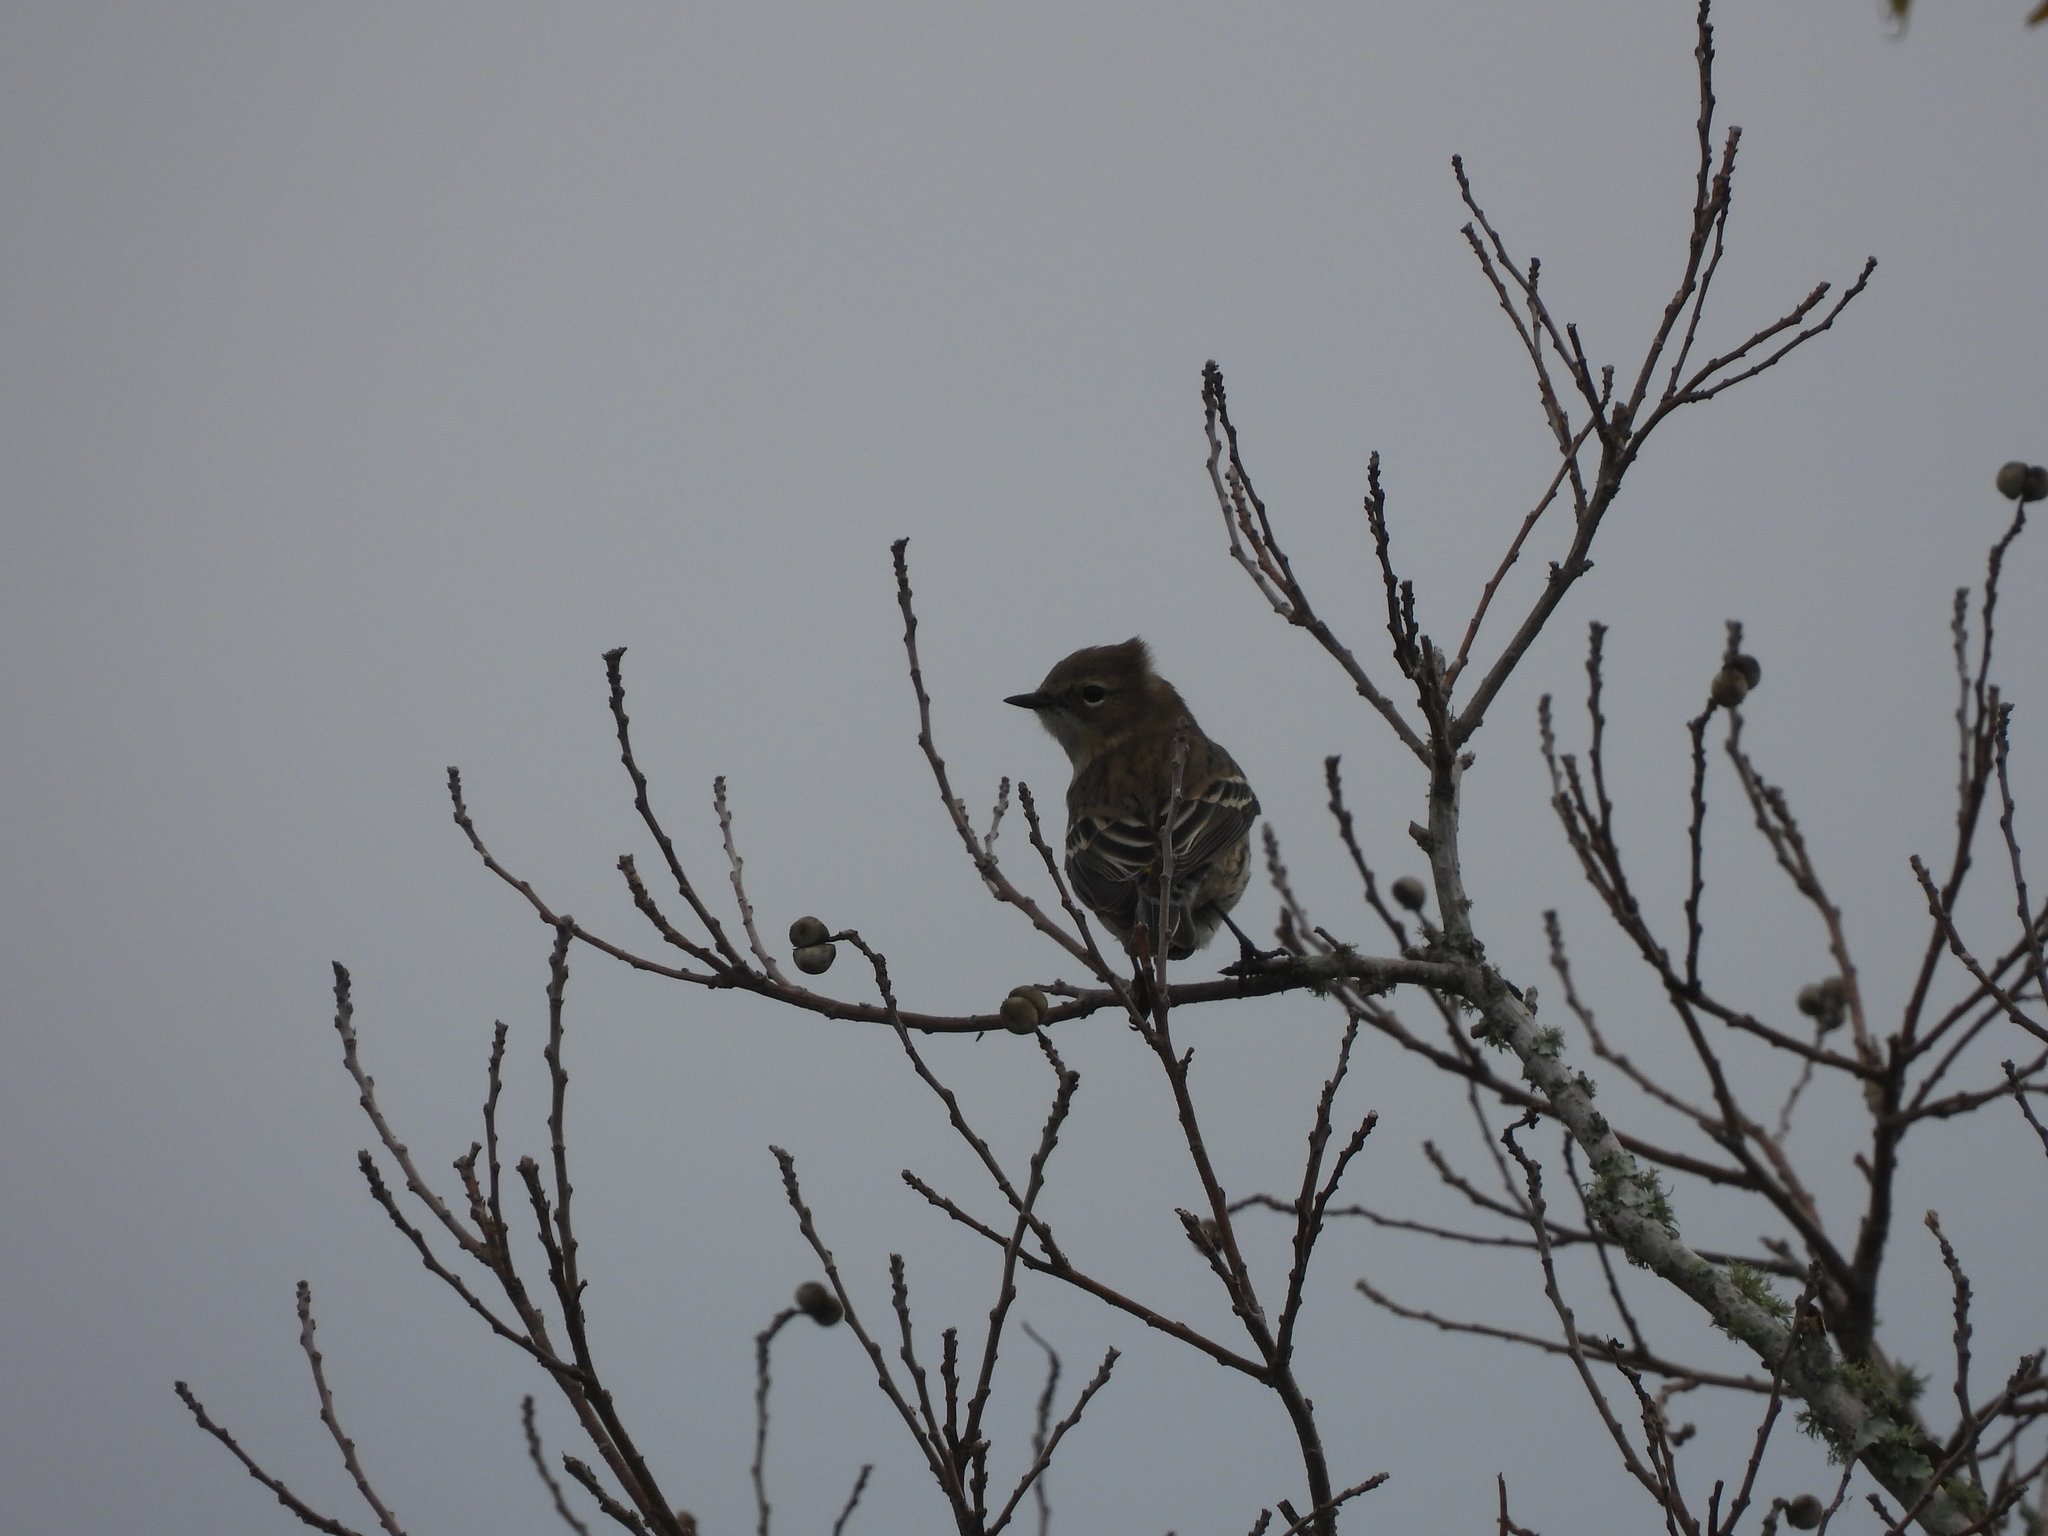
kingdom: Animalia
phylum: Chordata
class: Aves
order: Passeriformes
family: Parulidae
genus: Setophaga
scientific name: Setophaga coronata
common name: Myrtle warbler
